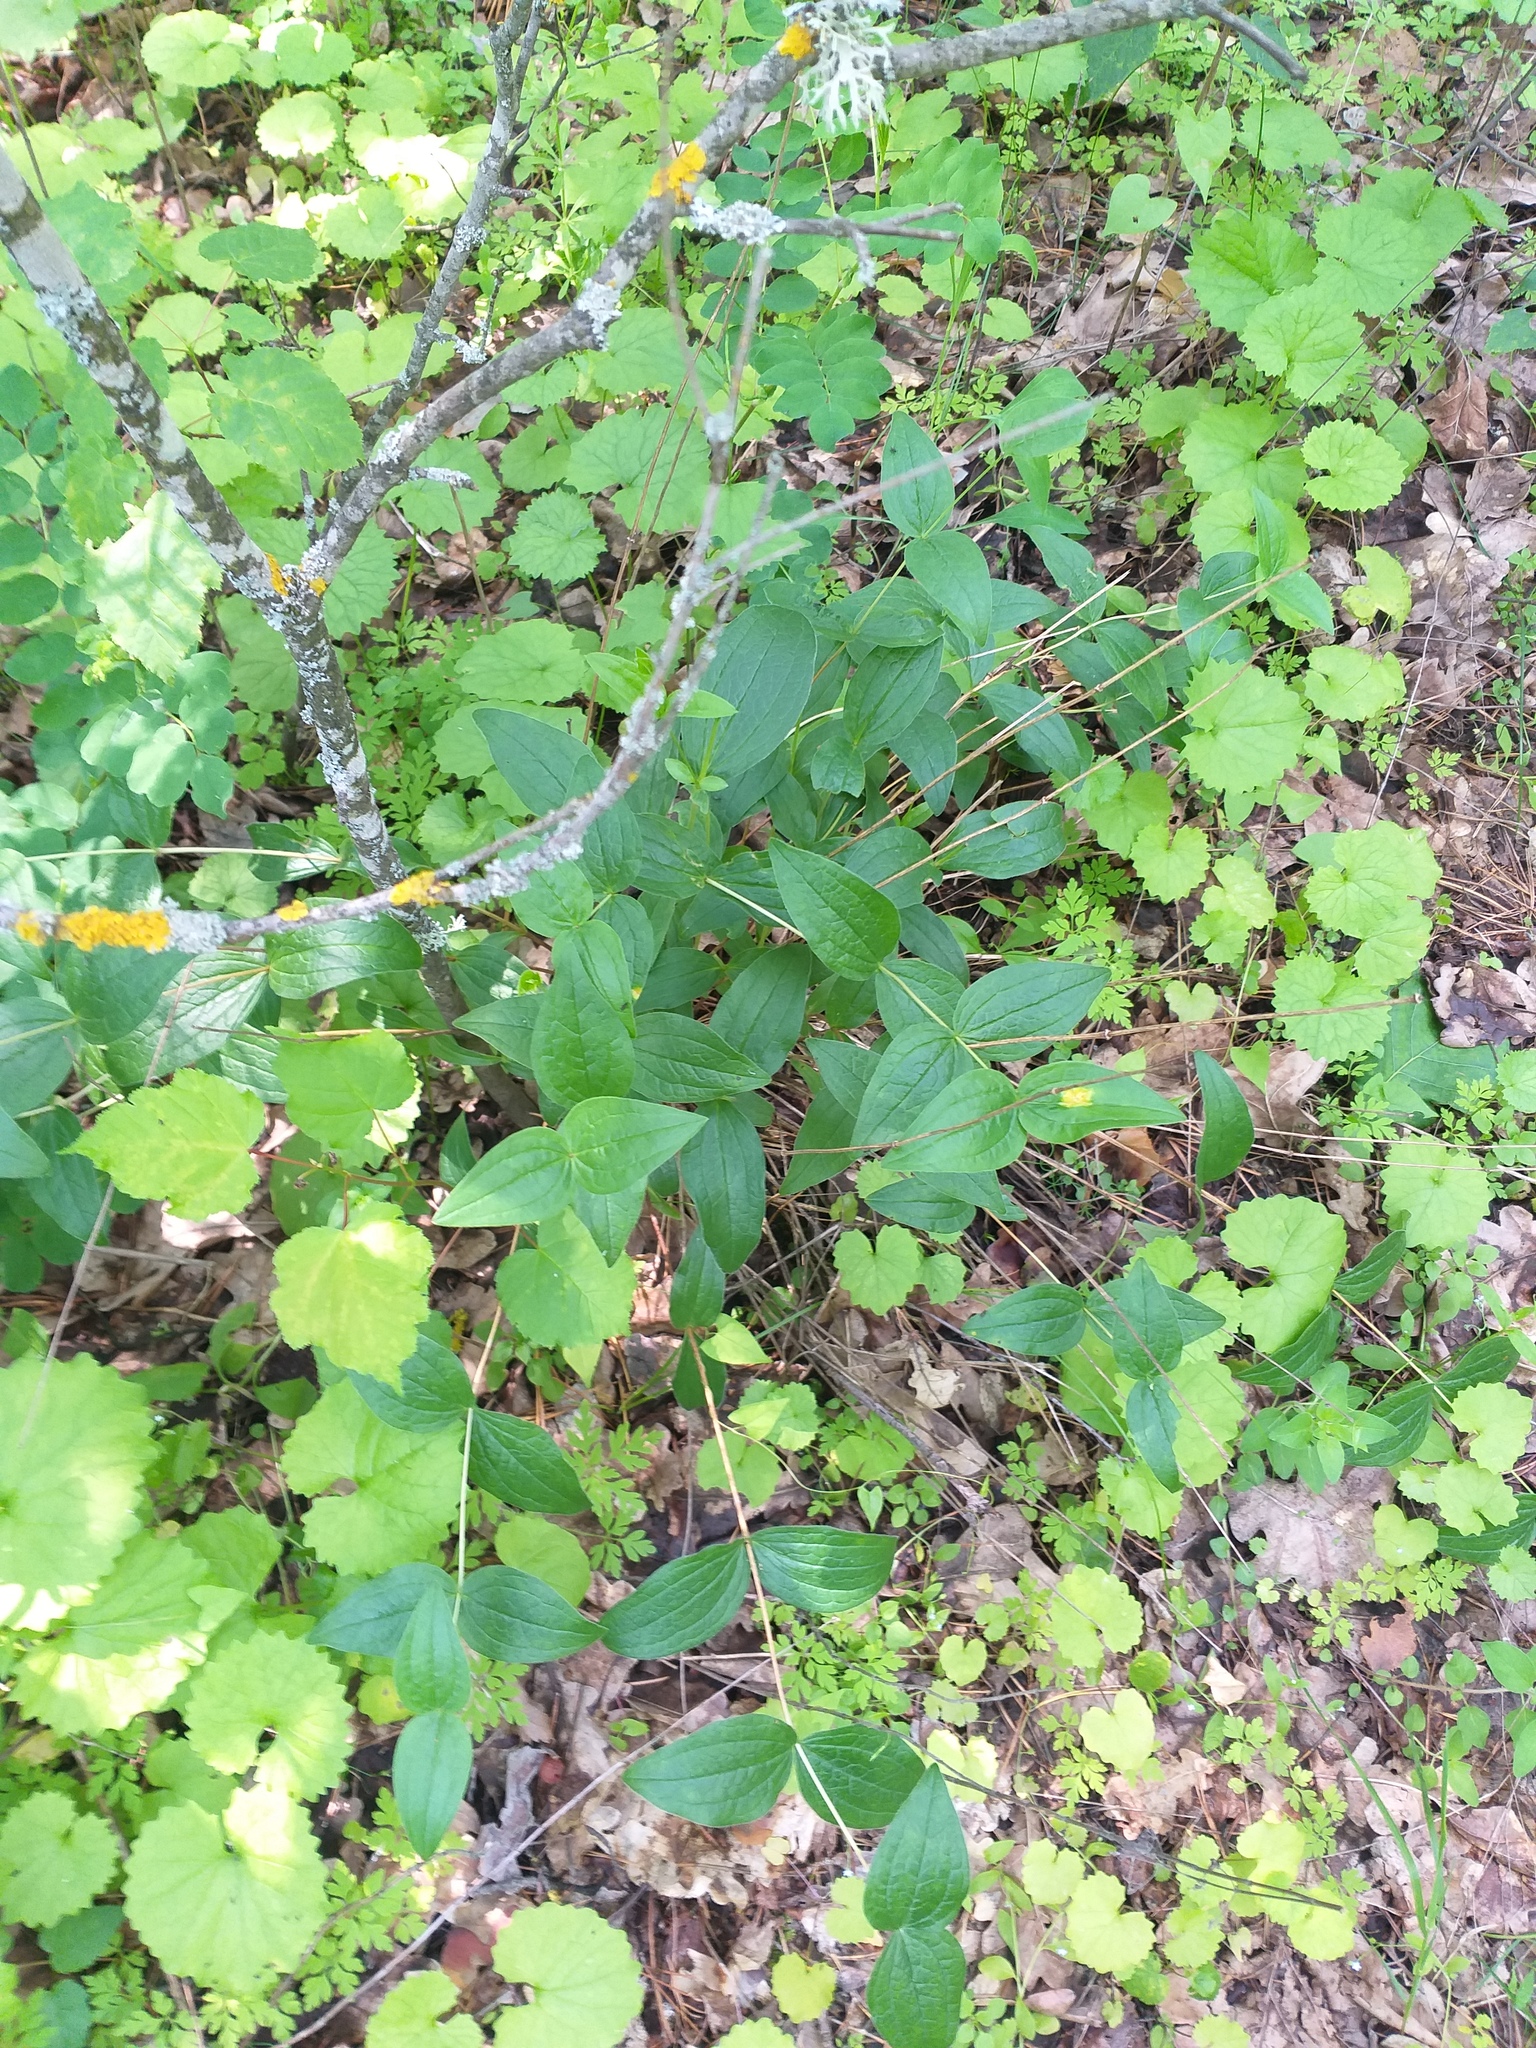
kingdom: Plantae
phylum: Tracheophyta
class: Magnoliopsida
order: Ranunculales
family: Ranunculaceae
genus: Clematis
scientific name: Clematis integrifolia
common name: Solitary clematis
